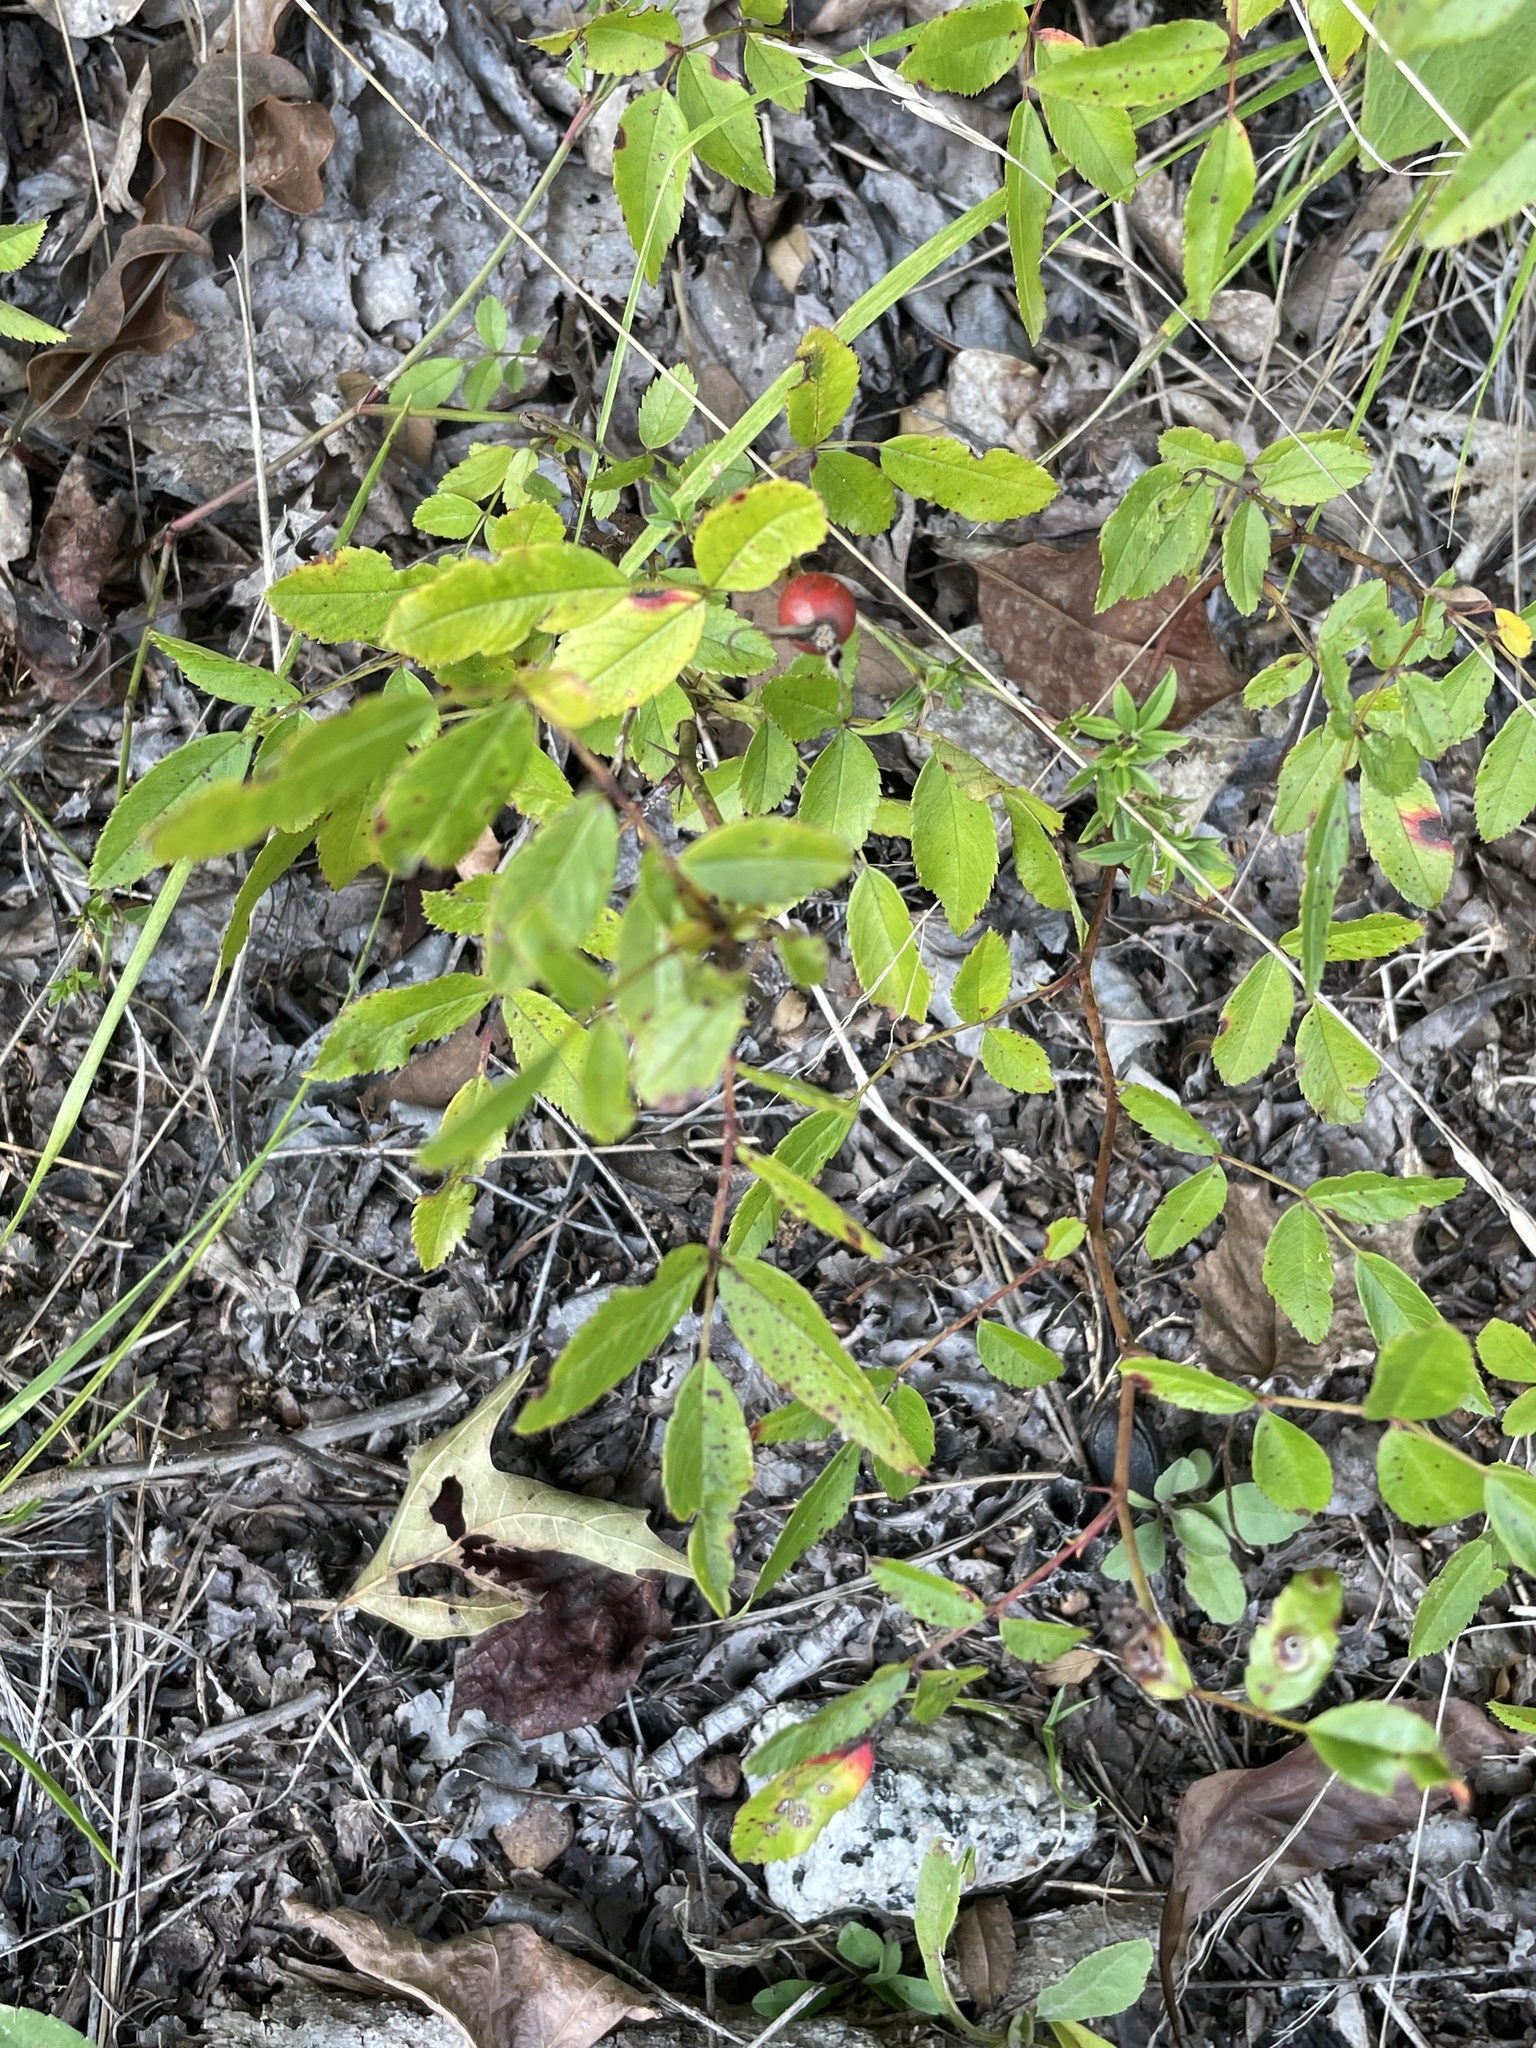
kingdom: Plantae
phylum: Tracheophyta
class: Magnoliopsida
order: Rosales
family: Rosaceae
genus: Rosa
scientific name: Rosa carolina
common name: Pasture rose
